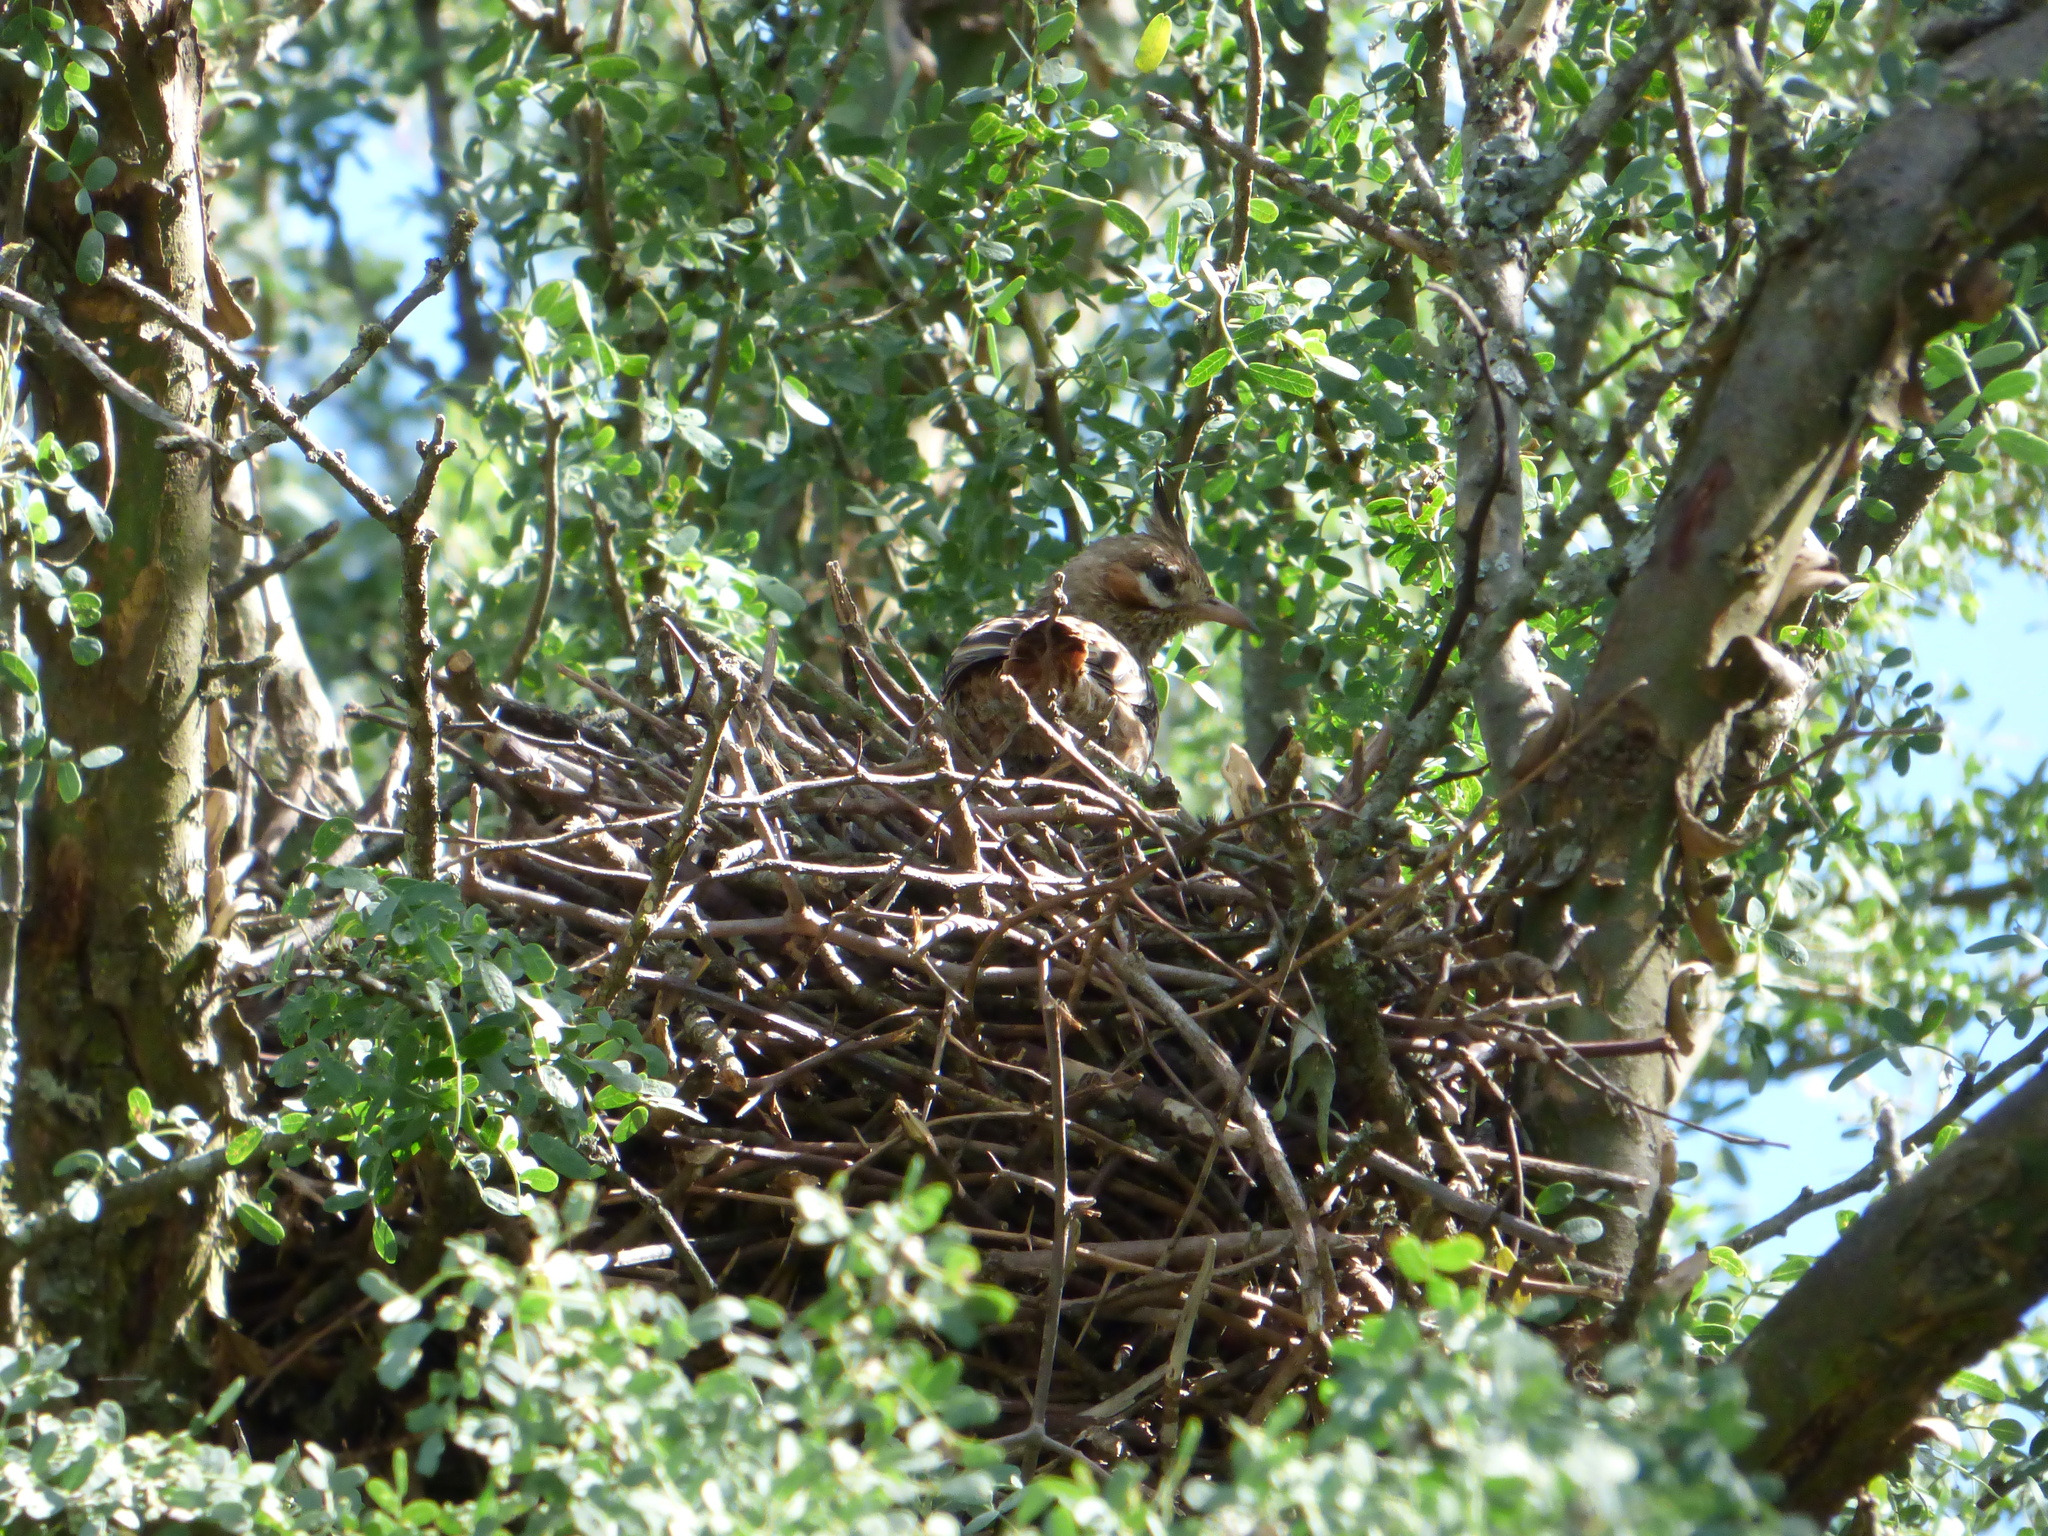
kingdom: Animalia
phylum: Chordata
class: Aves
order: Passeriformes
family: Furnariidae
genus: Coryphistera
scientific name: Coryphistera alaudina
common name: Lark-like brushrunner
